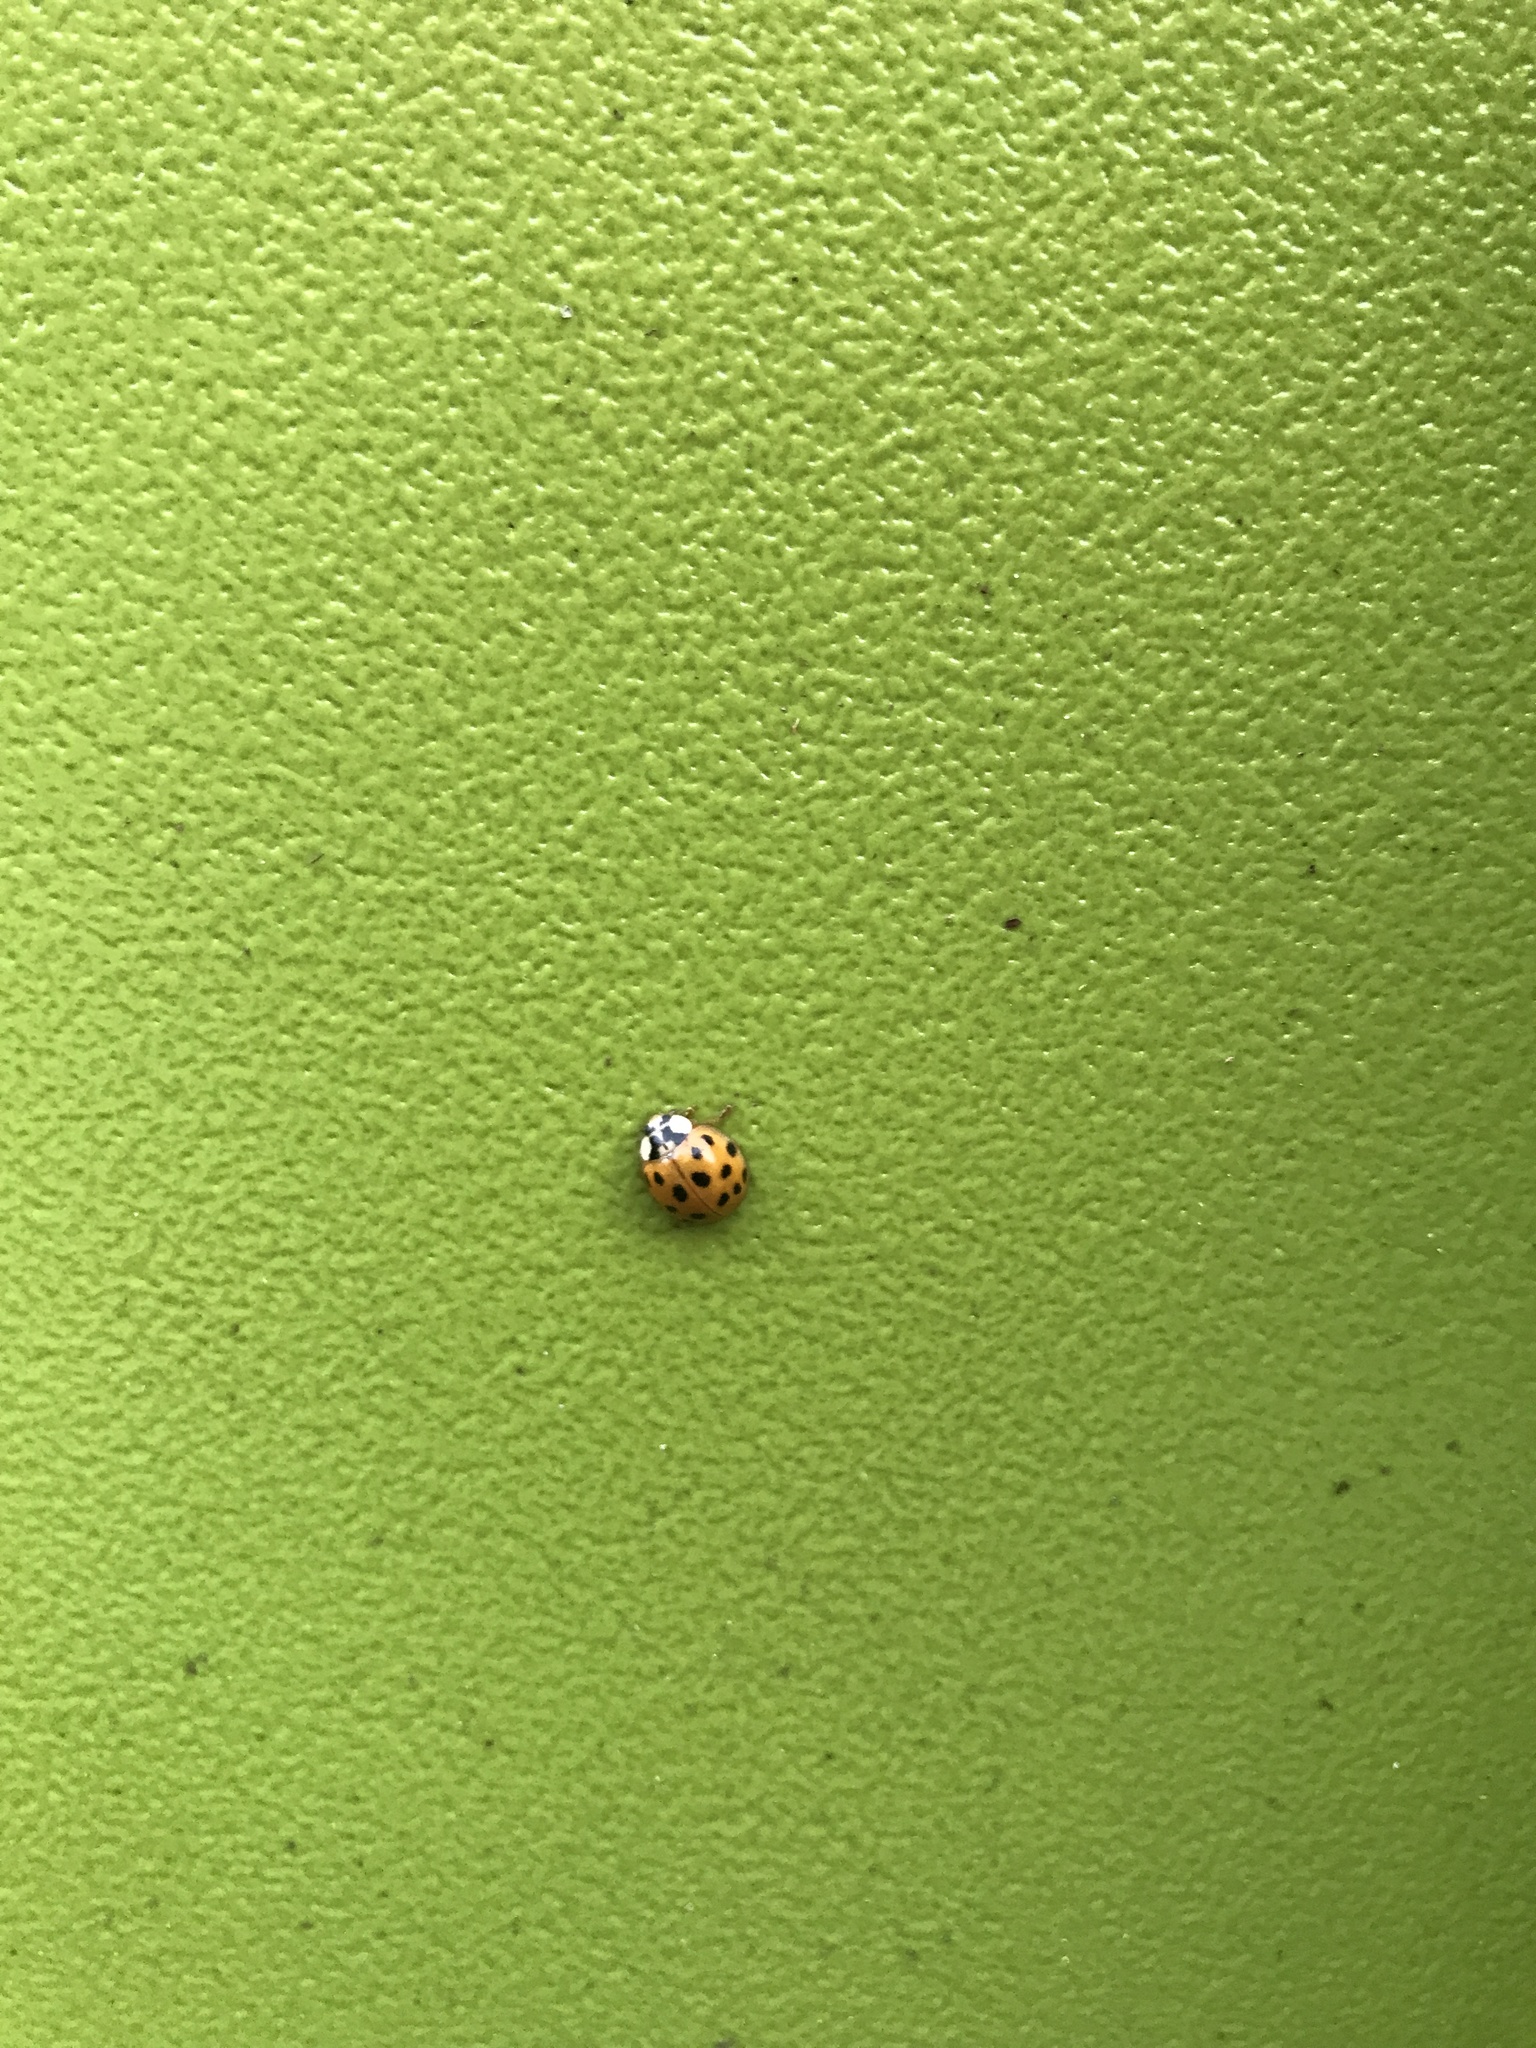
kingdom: Animalia
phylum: Arthropoda
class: Insecta
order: Coleoptera
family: Coccinellidae
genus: Harmonia
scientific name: Harmonia axyridis
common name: Harlequin ladybird
